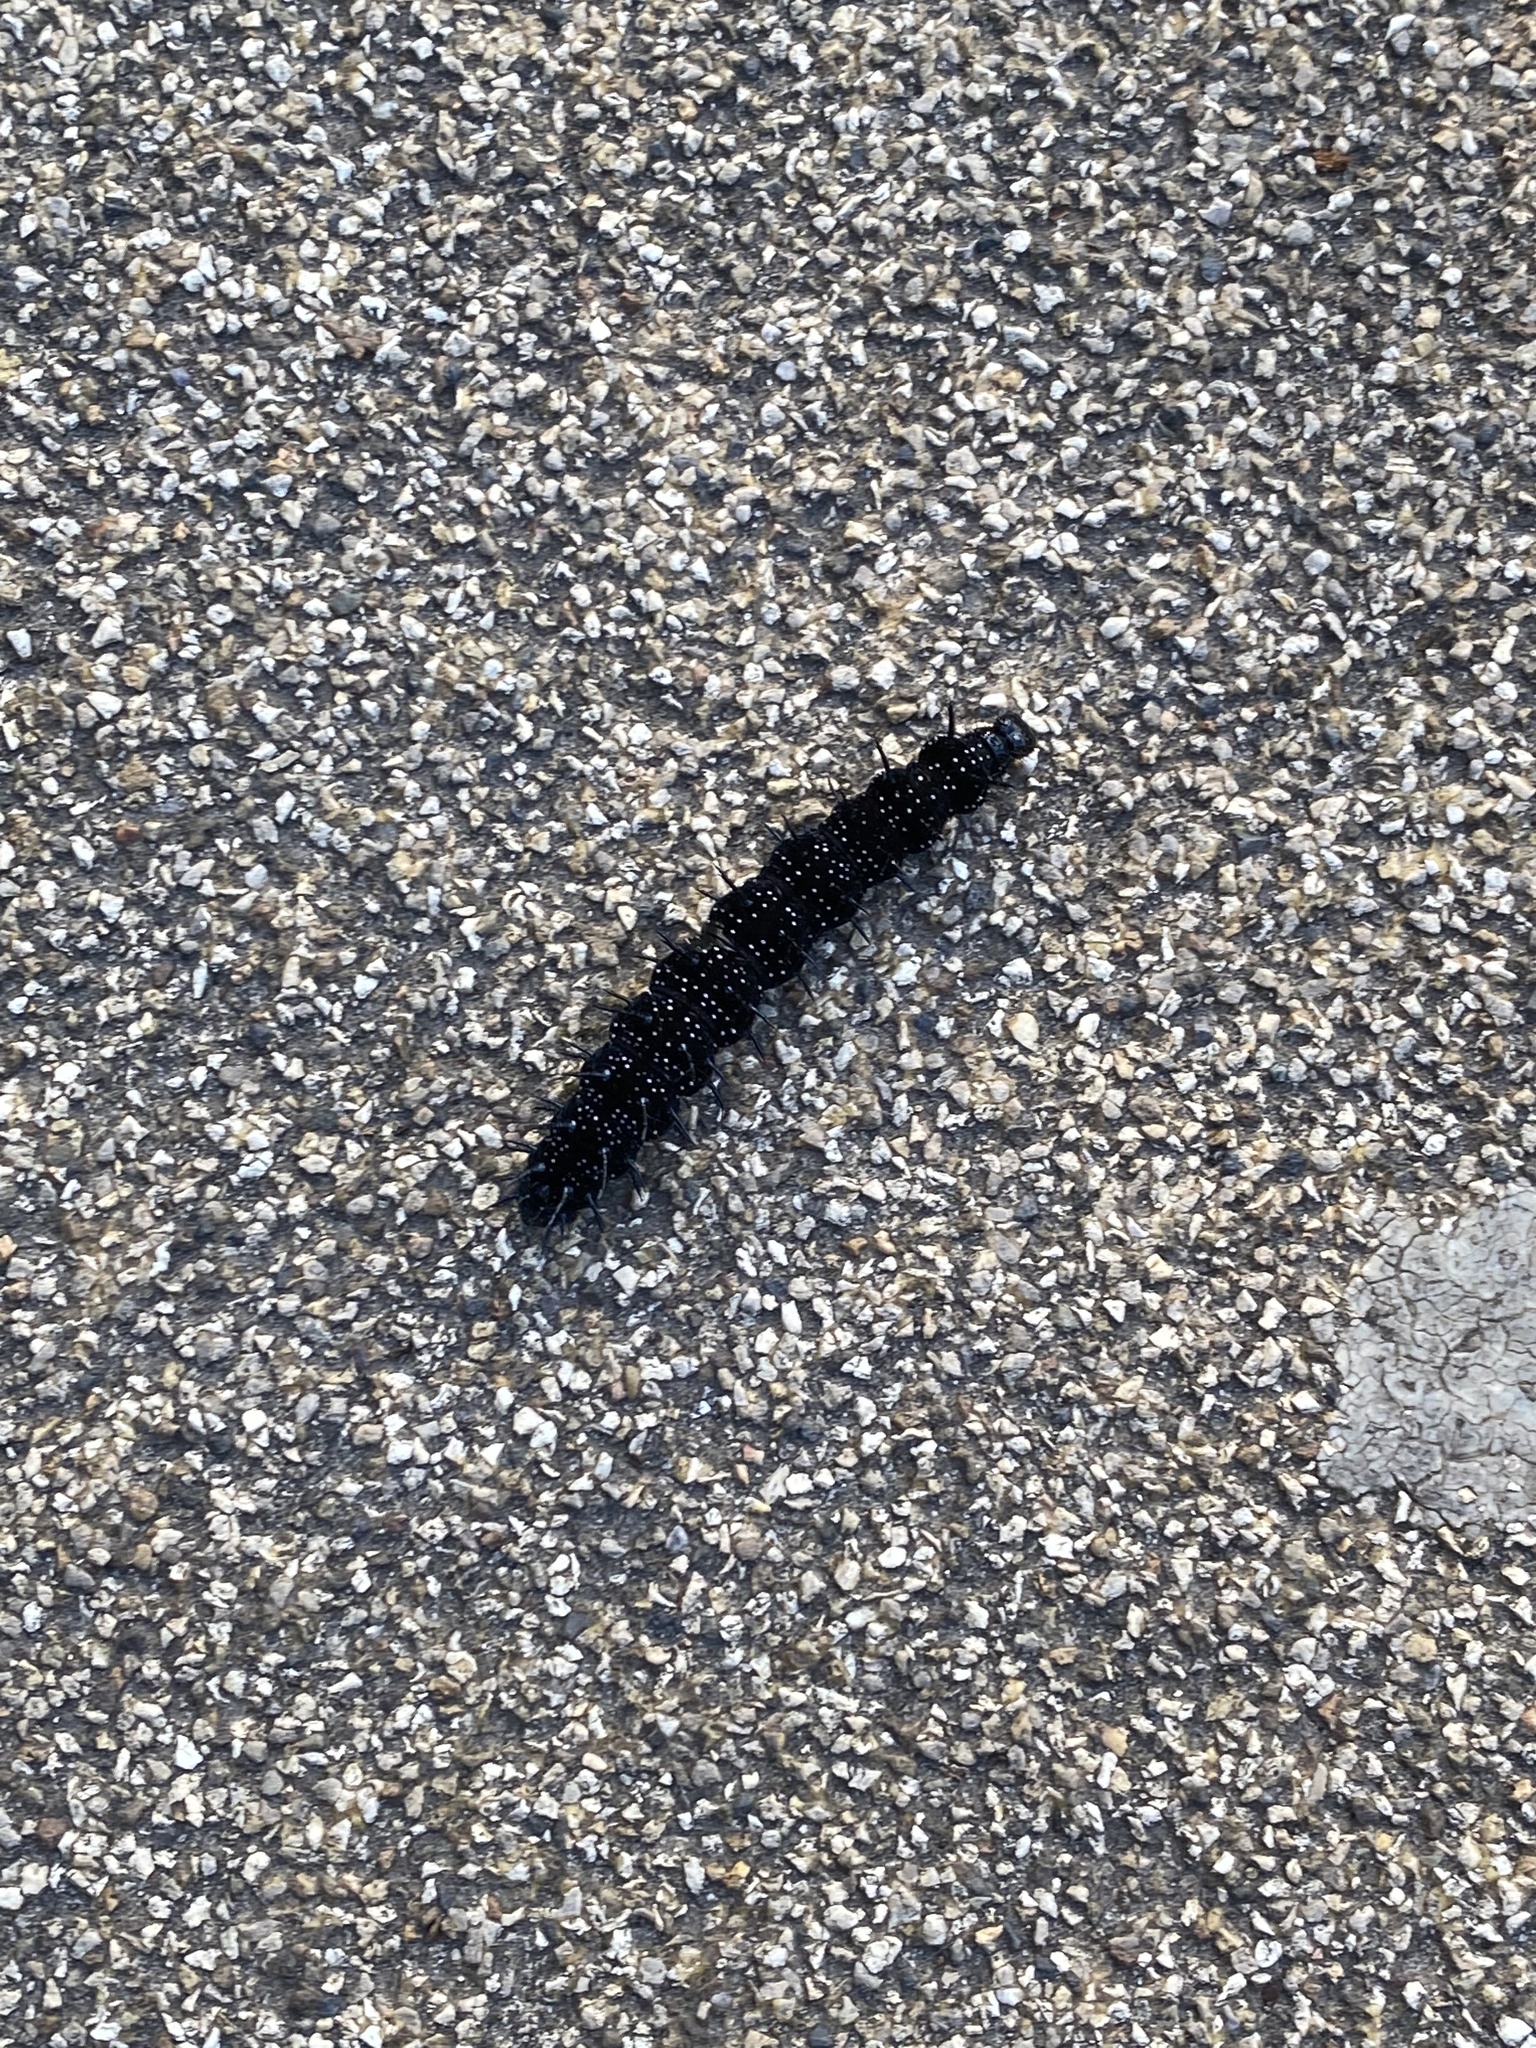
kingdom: Animalia
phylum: Arthropoda
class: Insecta
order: Lepidoptera
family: Nymphalidae
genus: Aglais
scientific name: Aglais io
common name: Peacock
